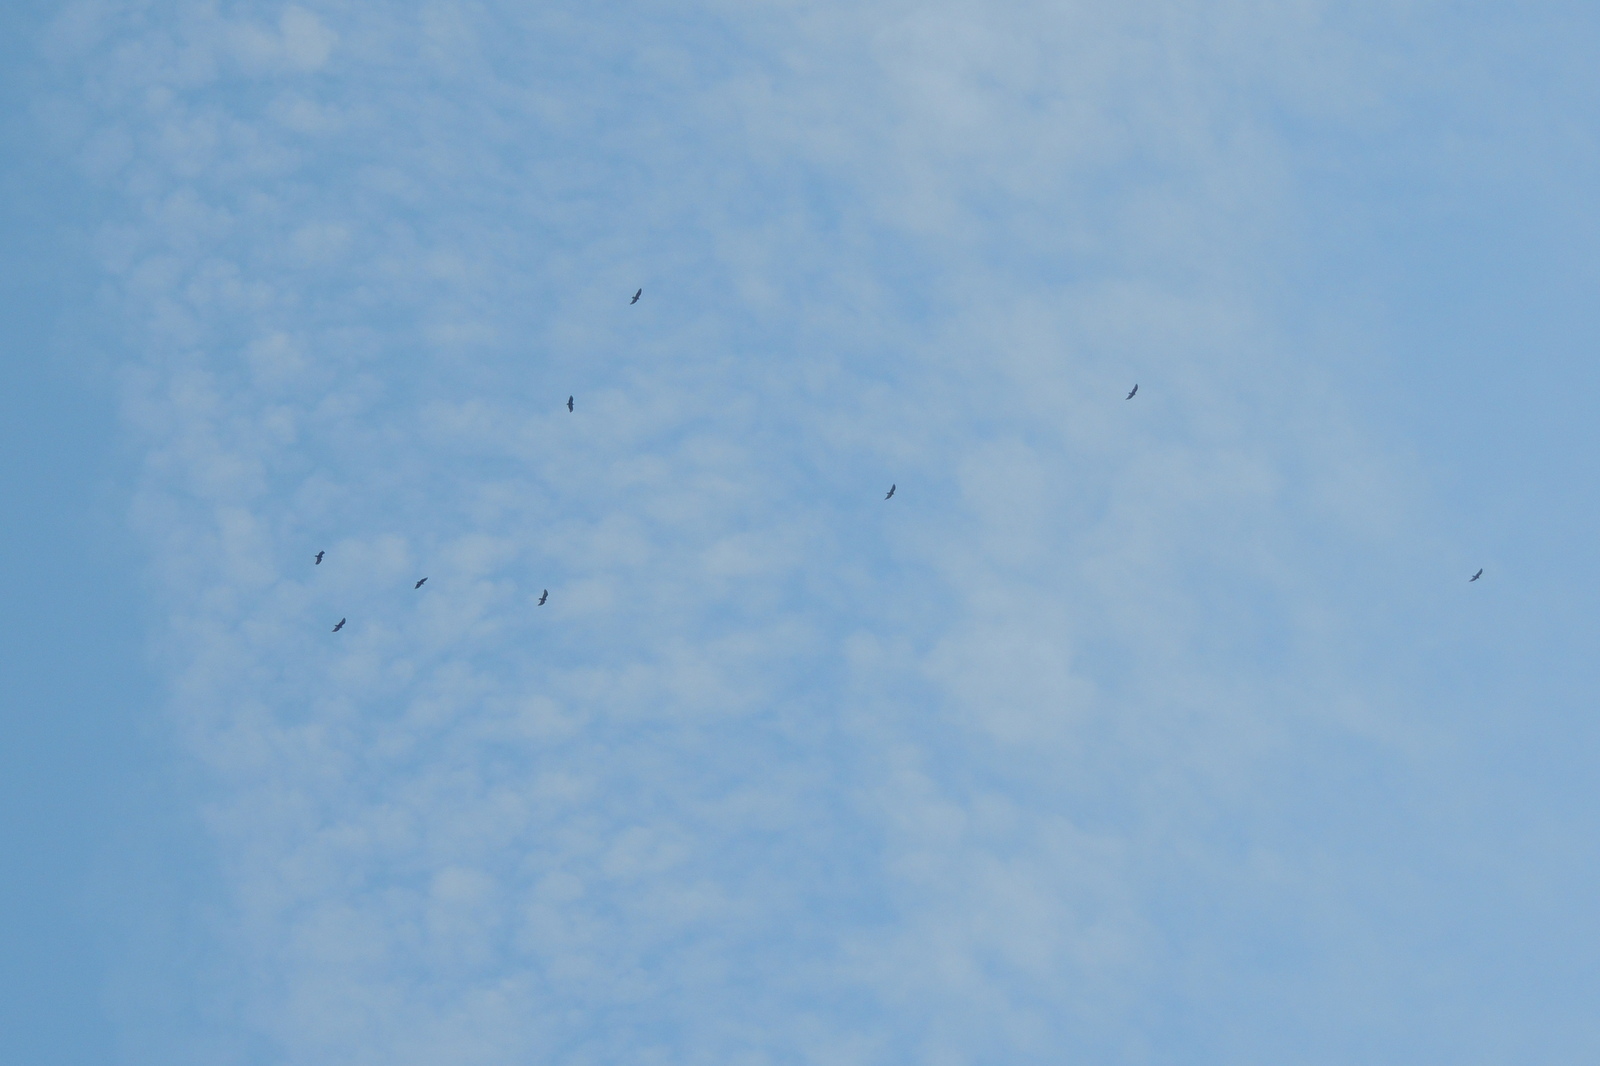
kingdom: Animalia
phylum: Chordata
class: Aves
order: Accipitriformes
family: Cathartidae
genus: Cathartes
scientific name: Cathartes aura
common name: Turkey vulture
